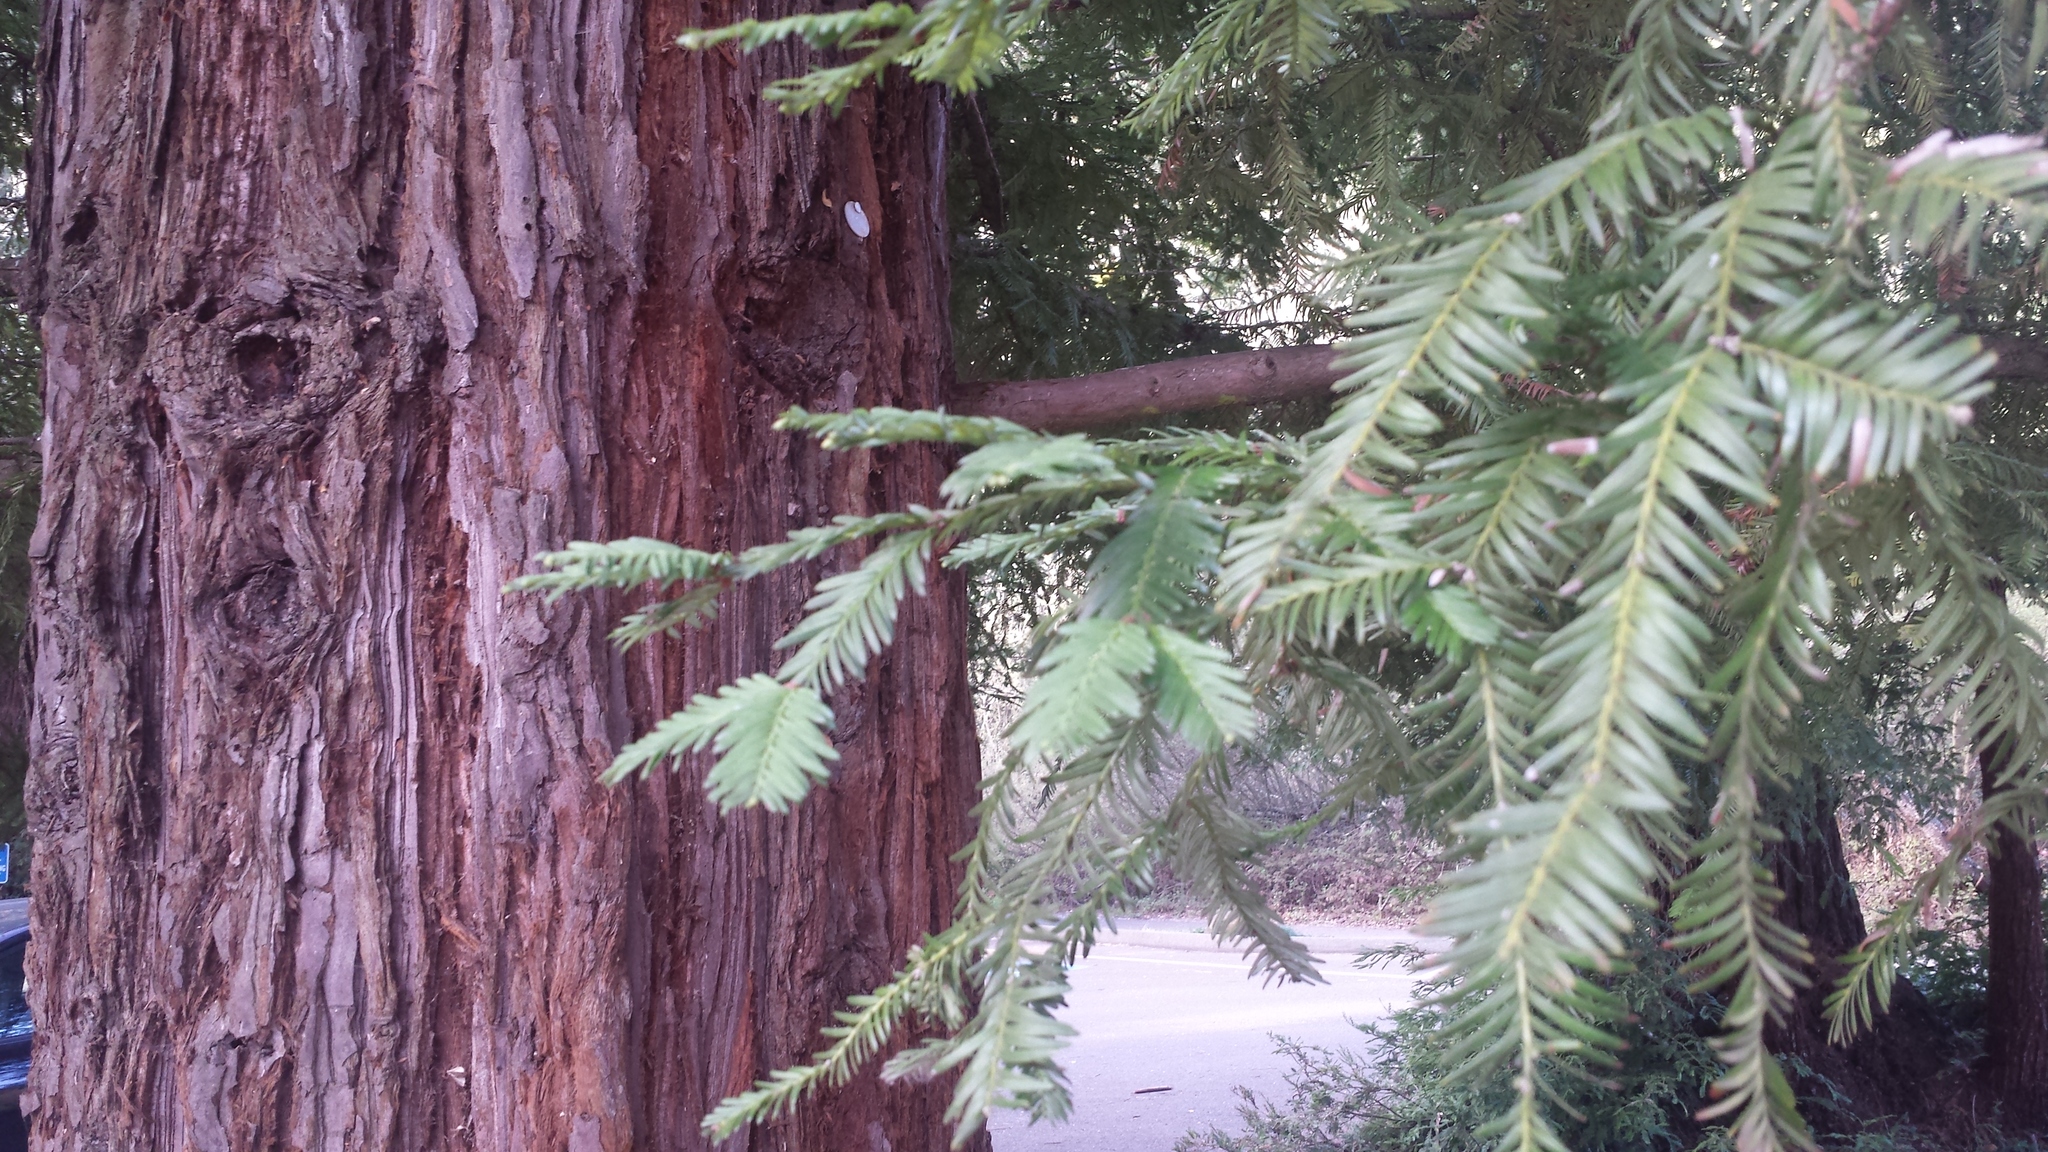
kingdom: Plantae
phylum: Tracheophyta
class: Pinopsida
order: Pinales
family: Cupressaceae
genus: Sequoia
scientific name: Sequoia sempervirens
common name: Coast redwood
